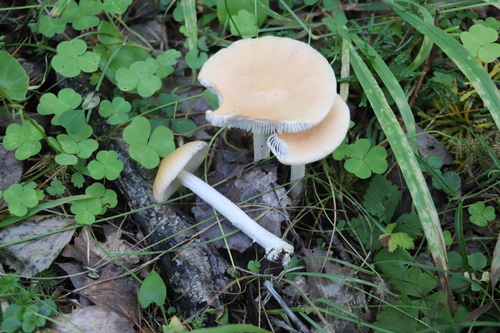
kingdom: Fungi
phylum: Basidiomycota
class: Agaricomycetes
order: Agaricales
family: Amanitaceae
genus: Amanita
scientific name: Amanita crocea
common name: Orange grisette
